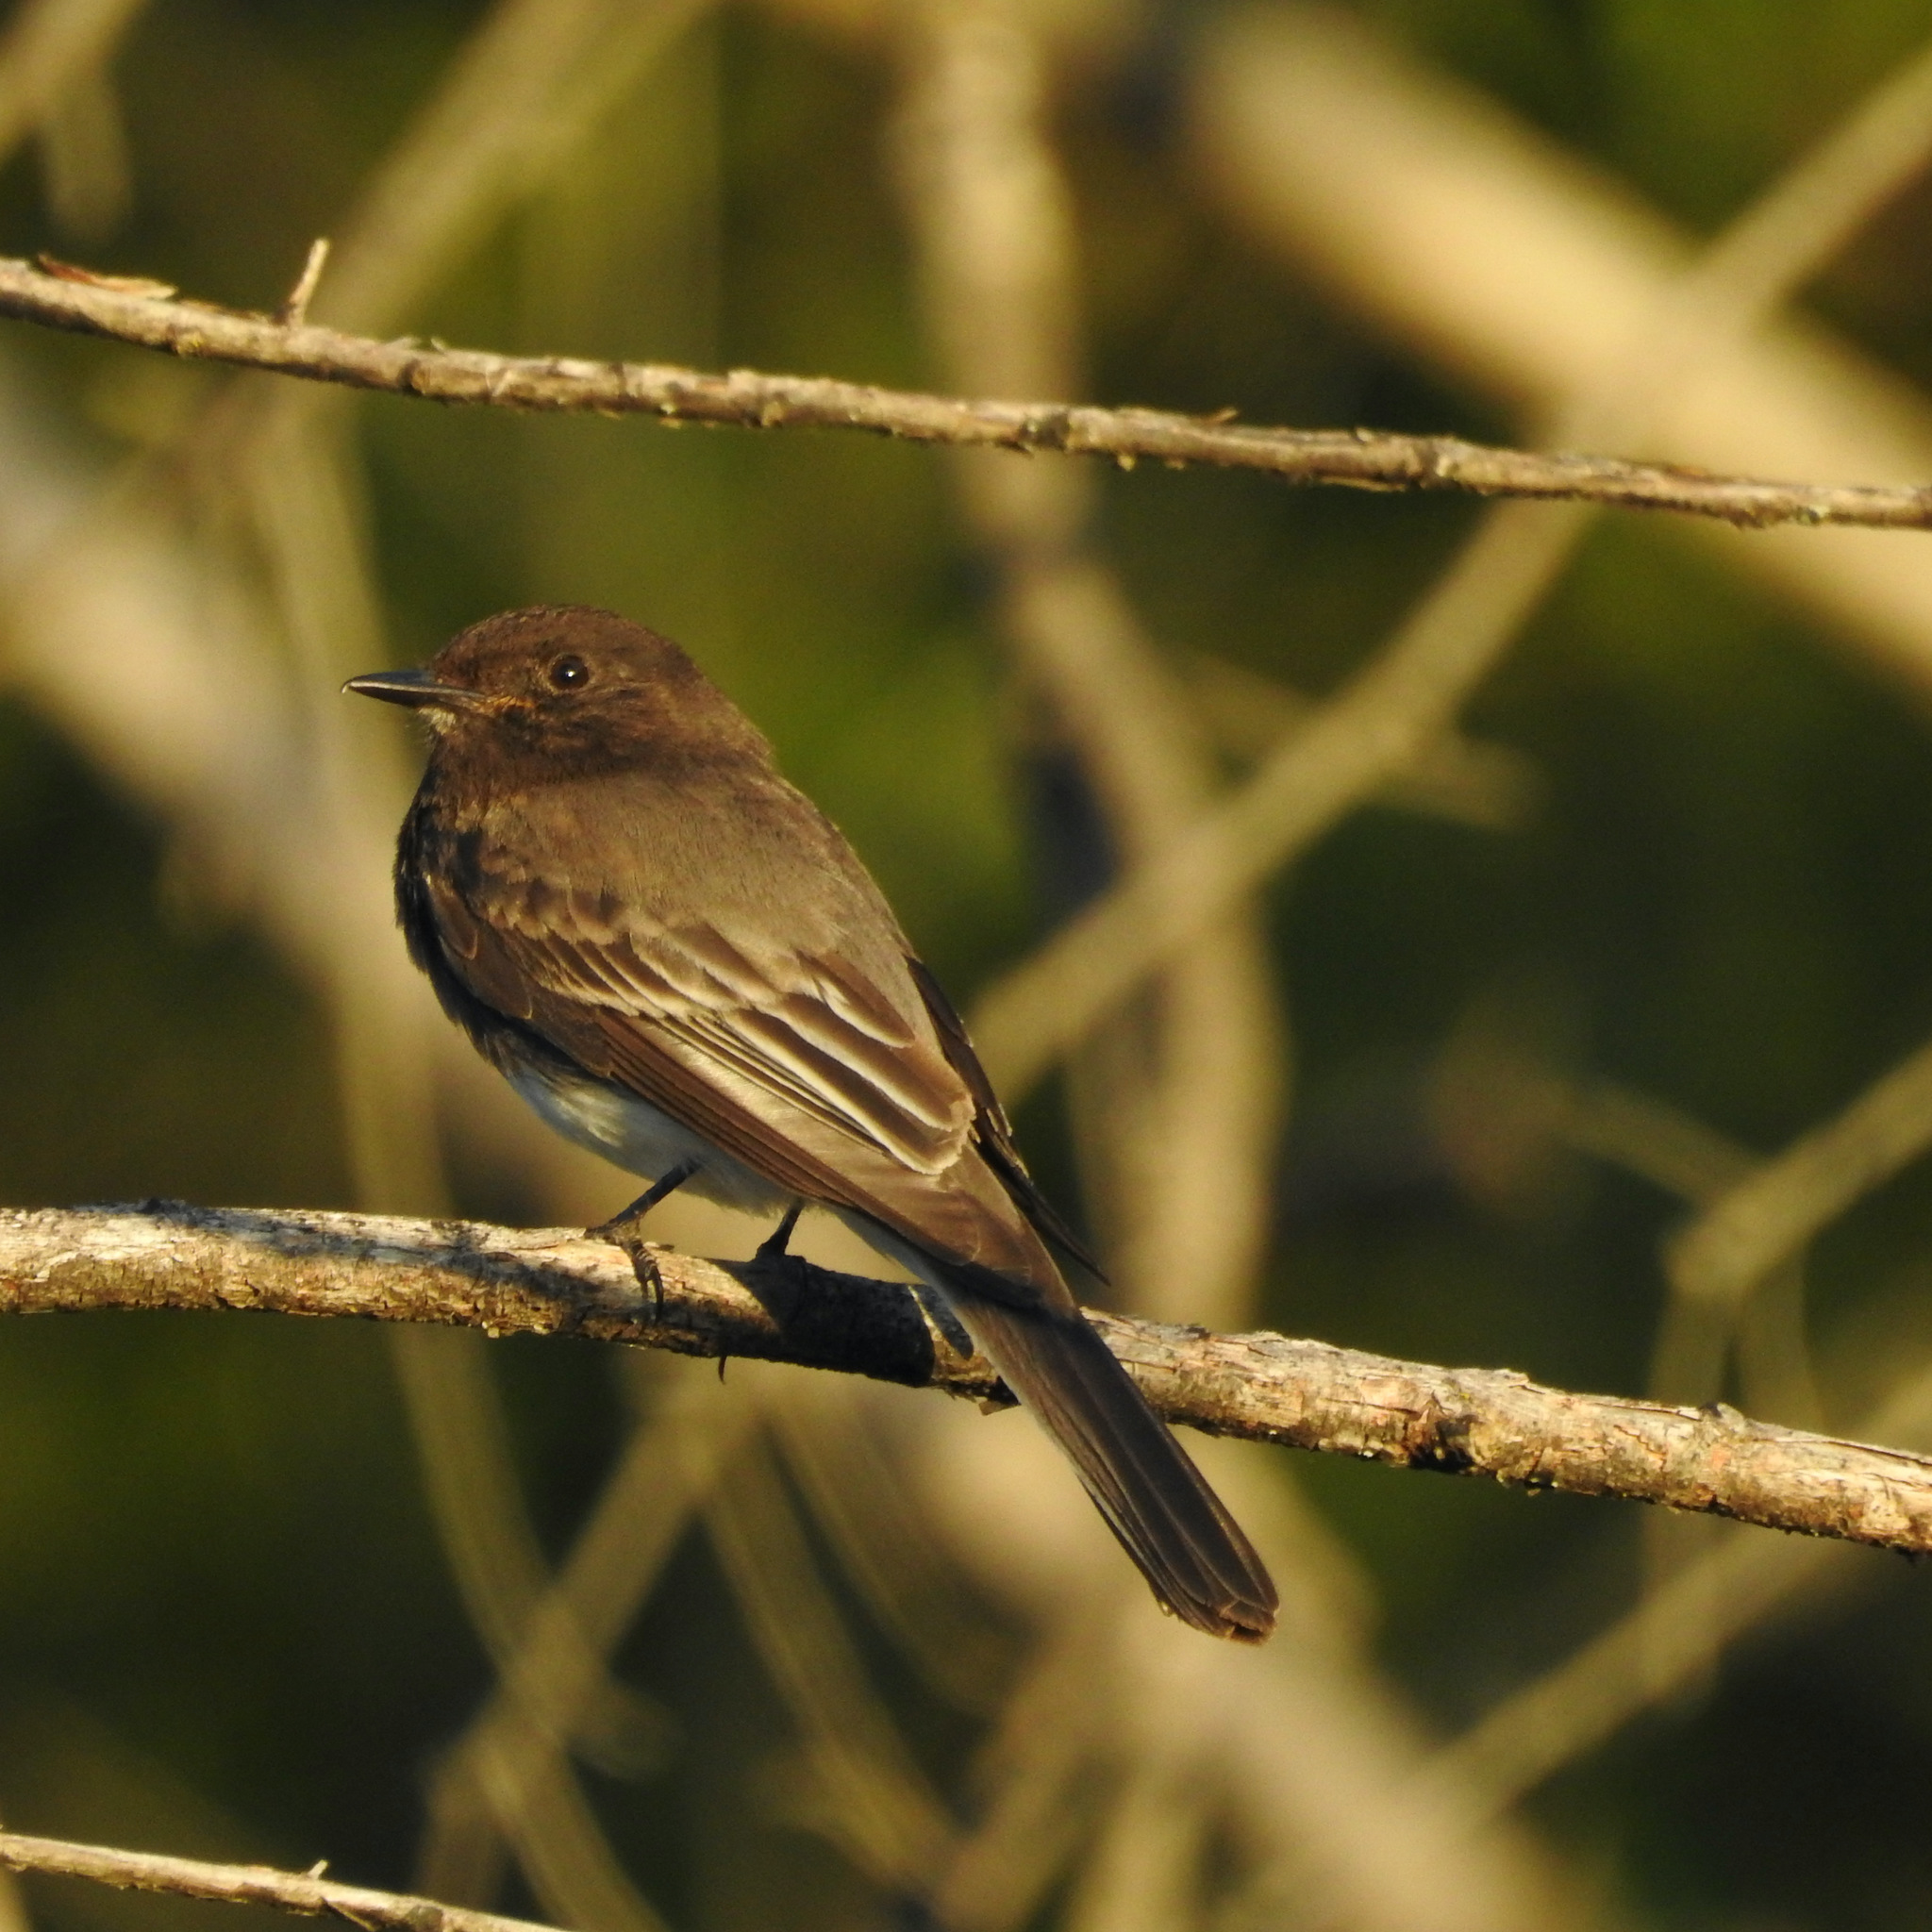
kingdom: Animalia
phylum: Chordata
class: Aves
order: Passeriformes
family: Tyrannidae
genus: Sayornis
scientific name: Sayornis nigricans
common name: Black phoebe
